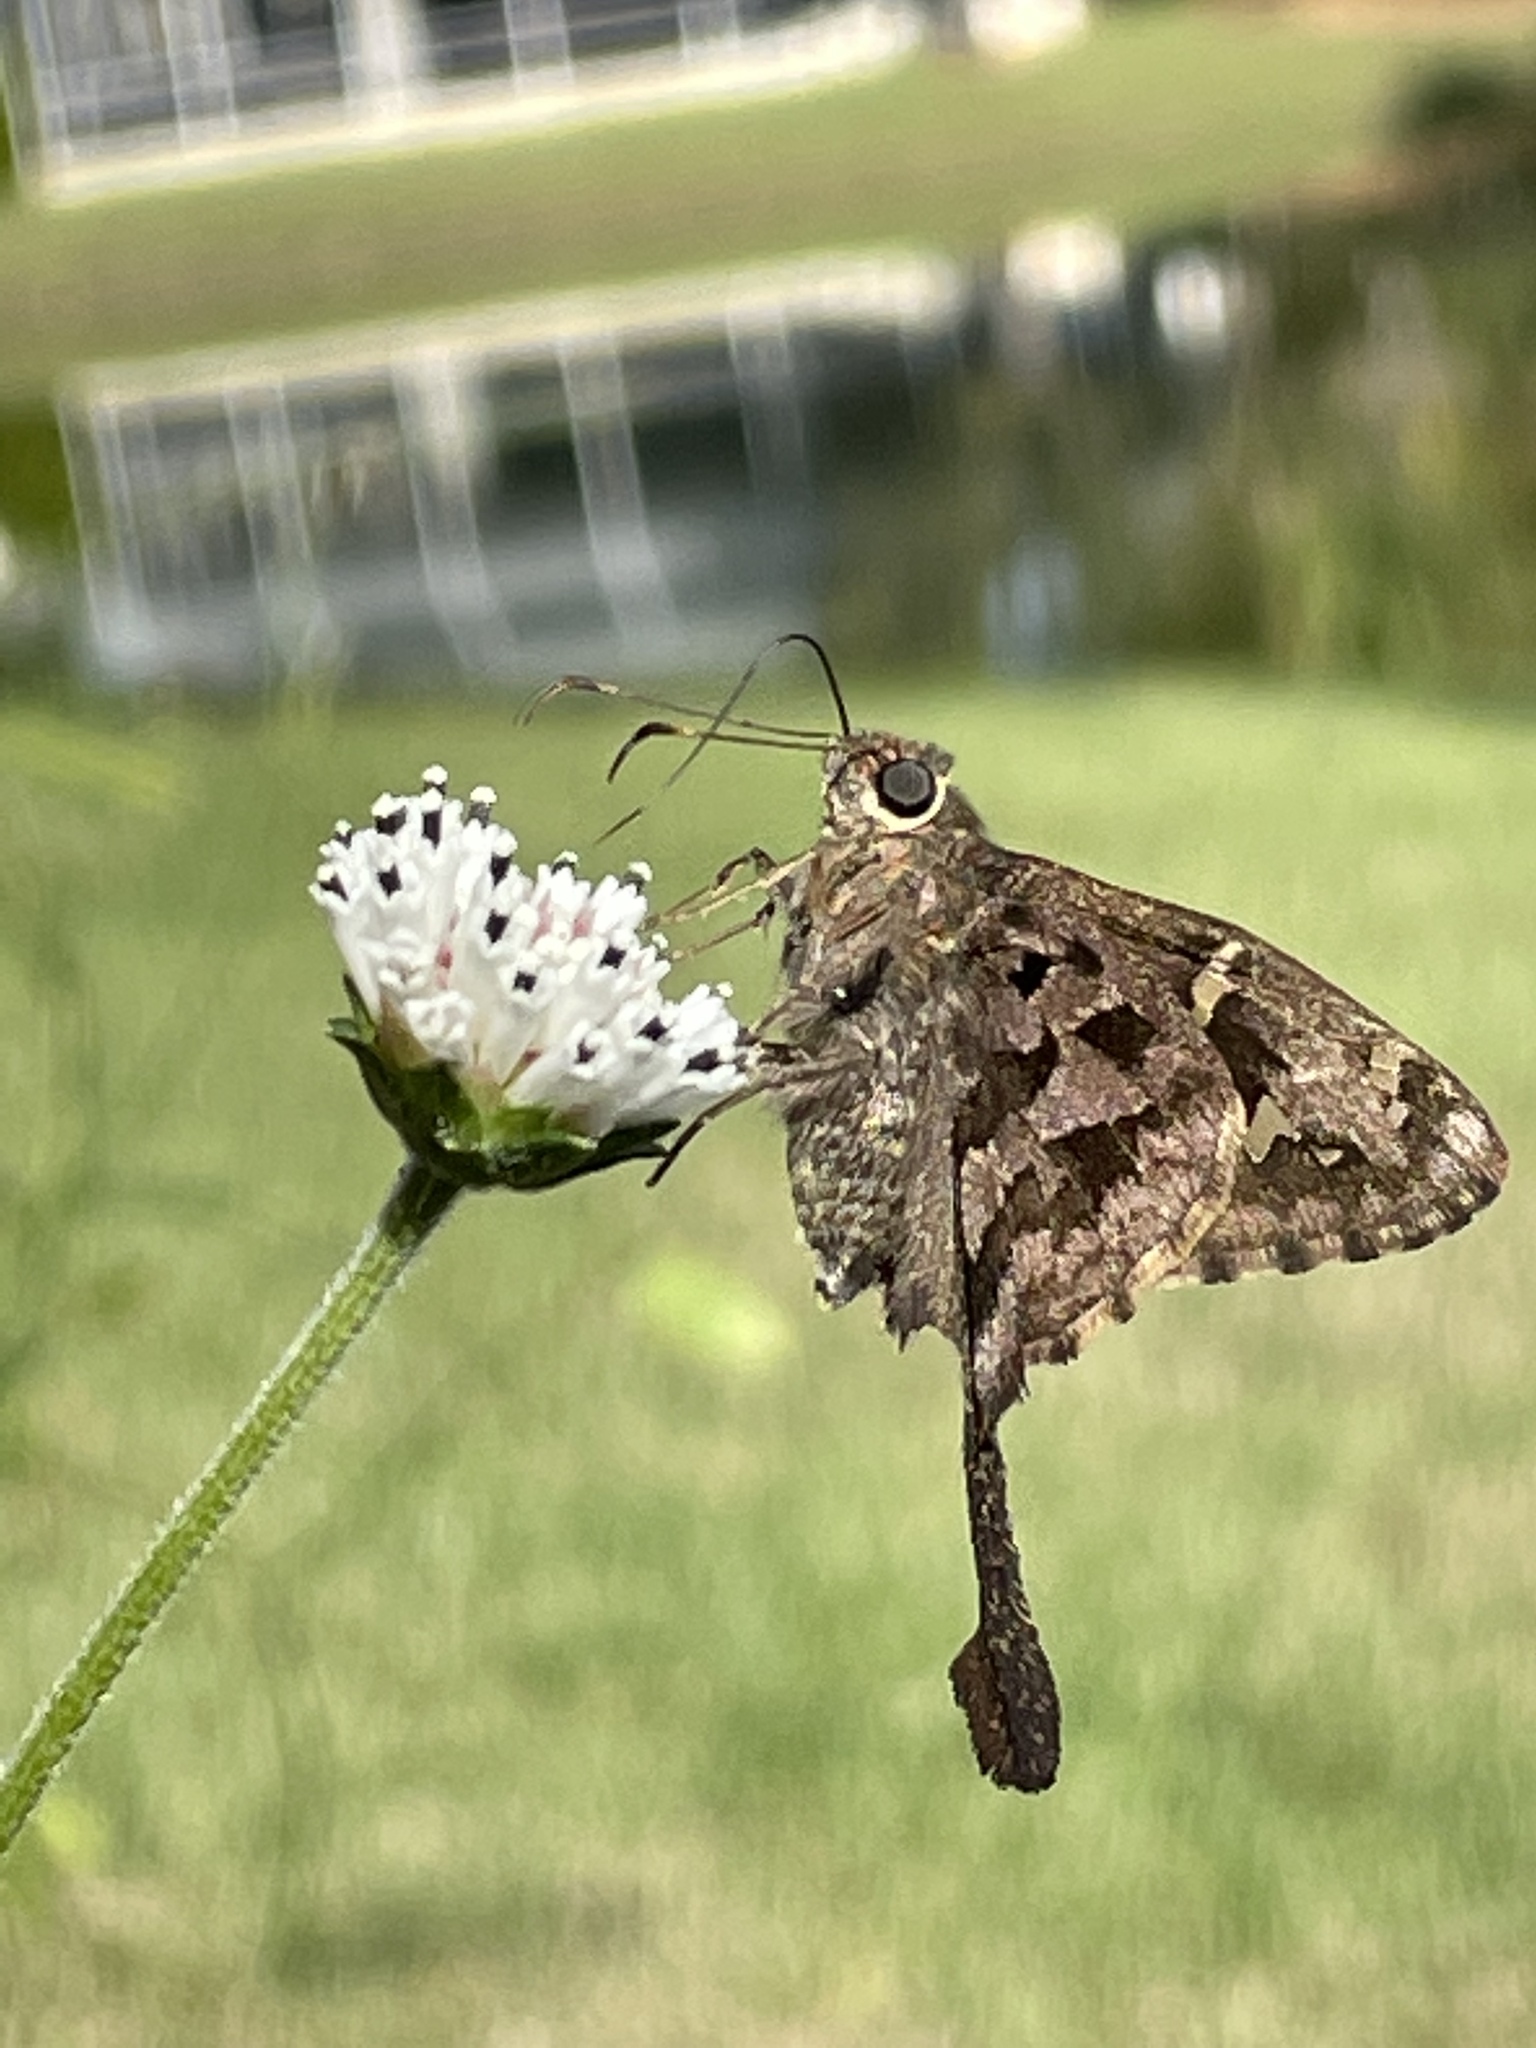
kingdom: Animalia
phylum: Arthropoda
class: Insecta
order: Lepidoptera
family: Hesperiidae
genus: Thorybes
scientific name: Thorybes
